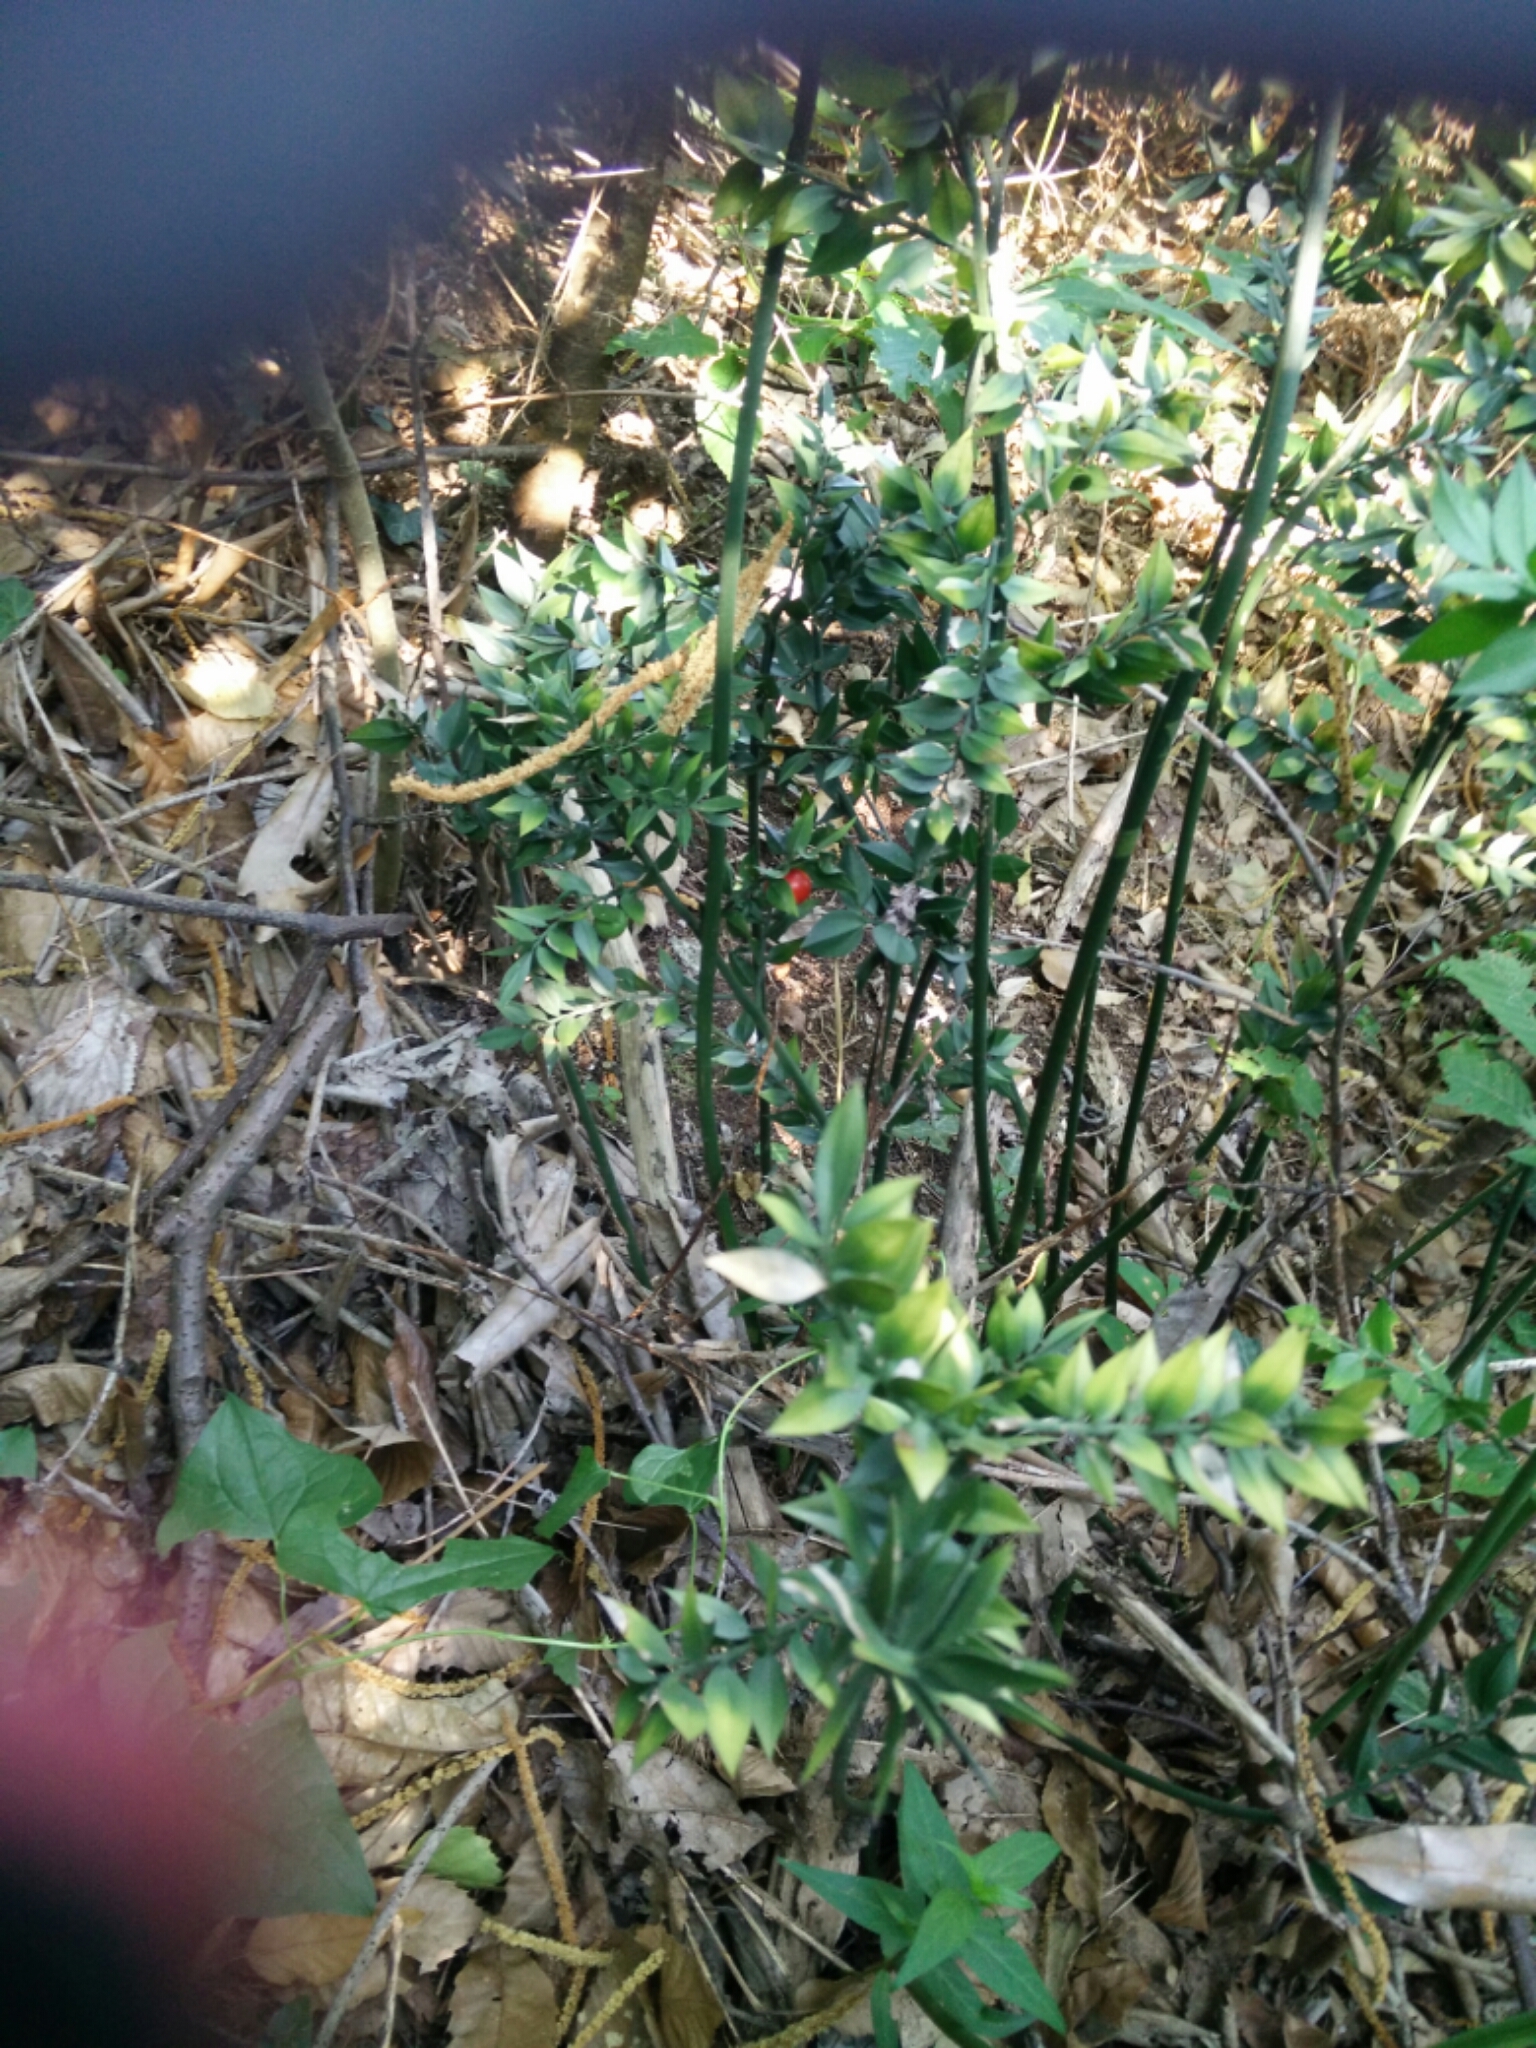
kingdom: Plantae
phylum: Tracheophyta
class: Liliopsida
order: Asparagales
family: Asparagaceae
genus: Ruscus
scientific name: Ruscus aculeatus
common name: Butcher's-broom
